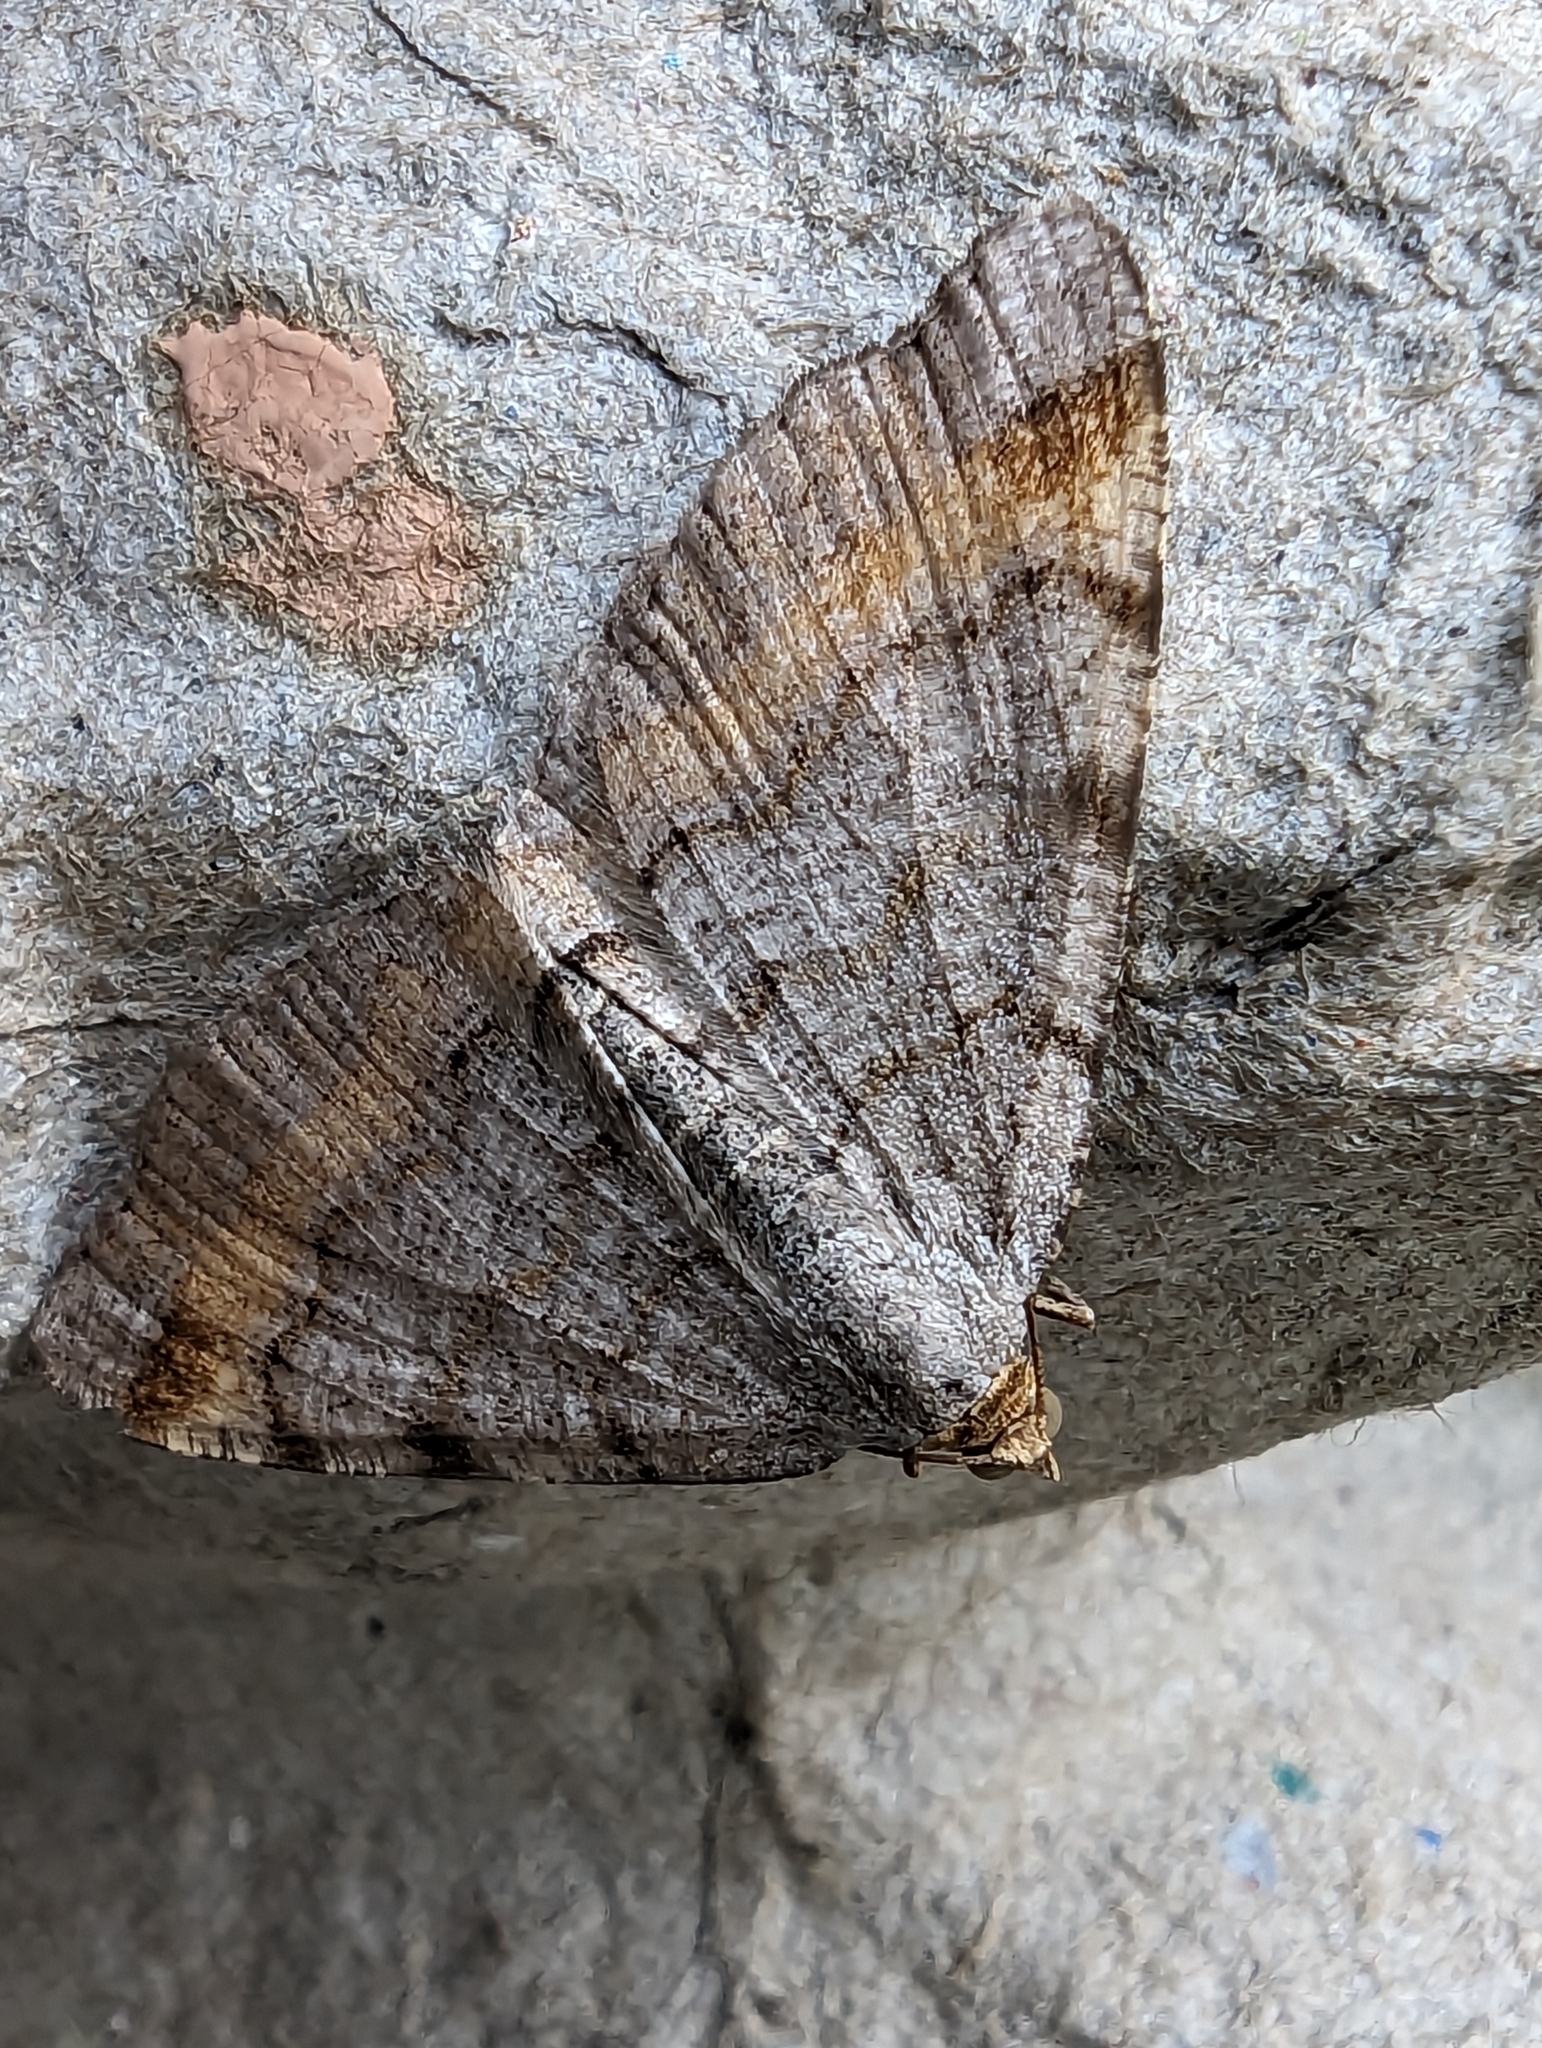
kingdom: Animalia
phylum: Arthropoda
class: Insecta
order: Lepidoptera
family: Geometridae
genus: Macaria
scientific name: Macaria liturata
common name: Tawny-barred angle
